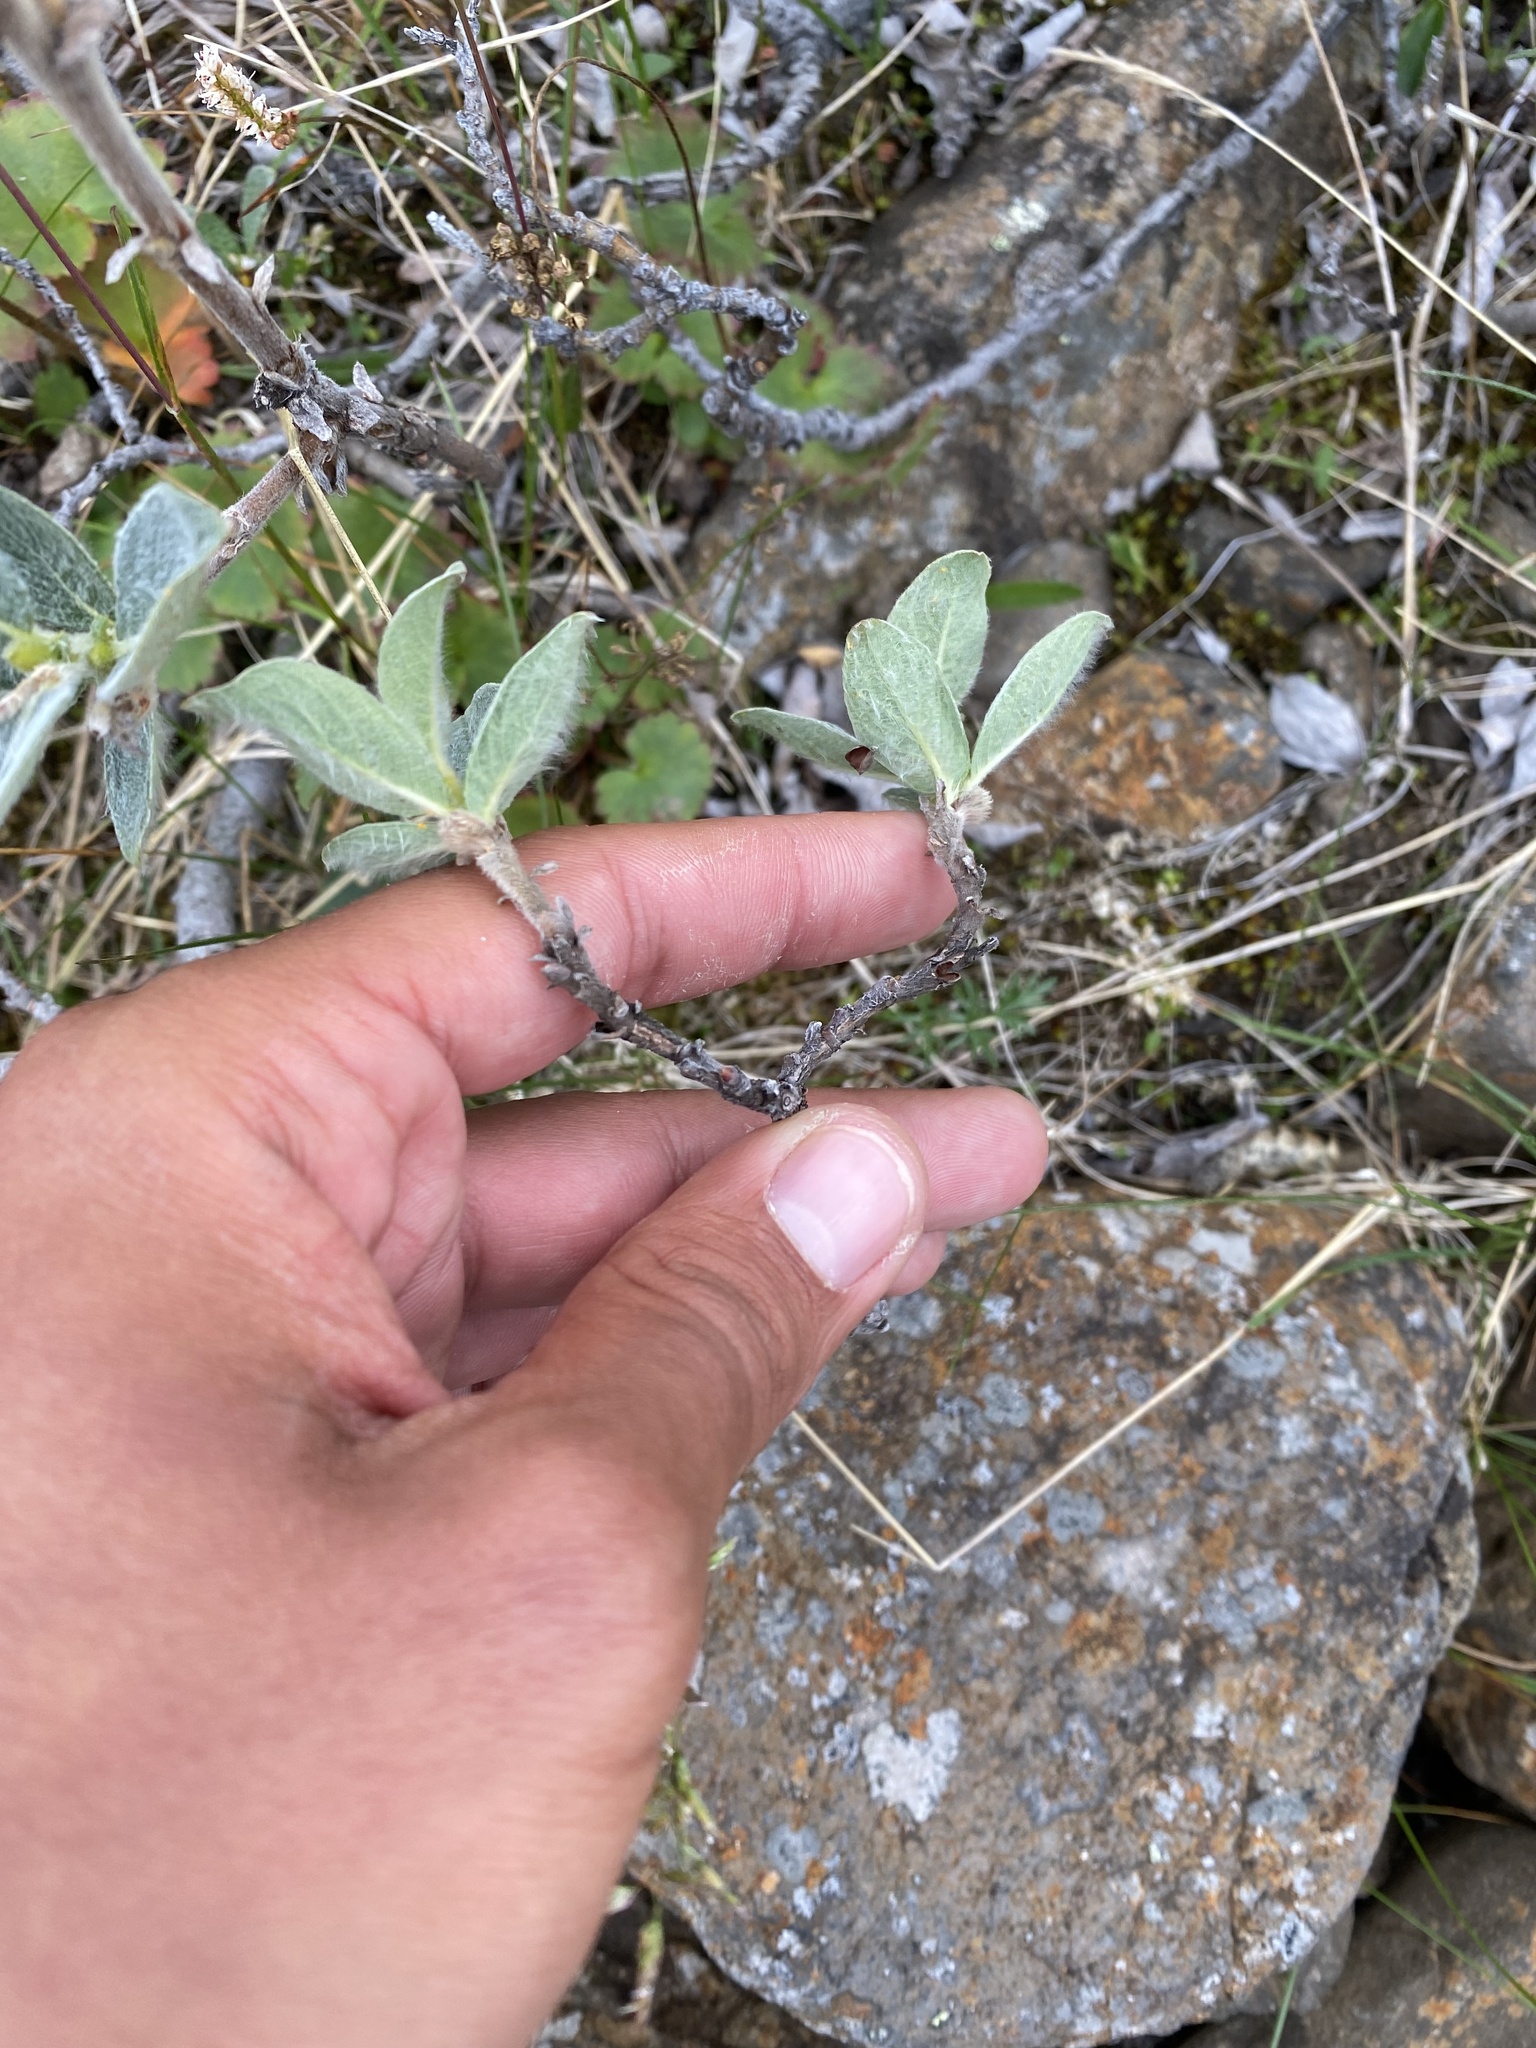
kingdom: Plantae
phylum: Tracheophyta
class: Magnoliopsida
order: Malpighiales
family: Salicaceae
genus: Salix
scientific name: Salix lanata
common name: Woolly willow
